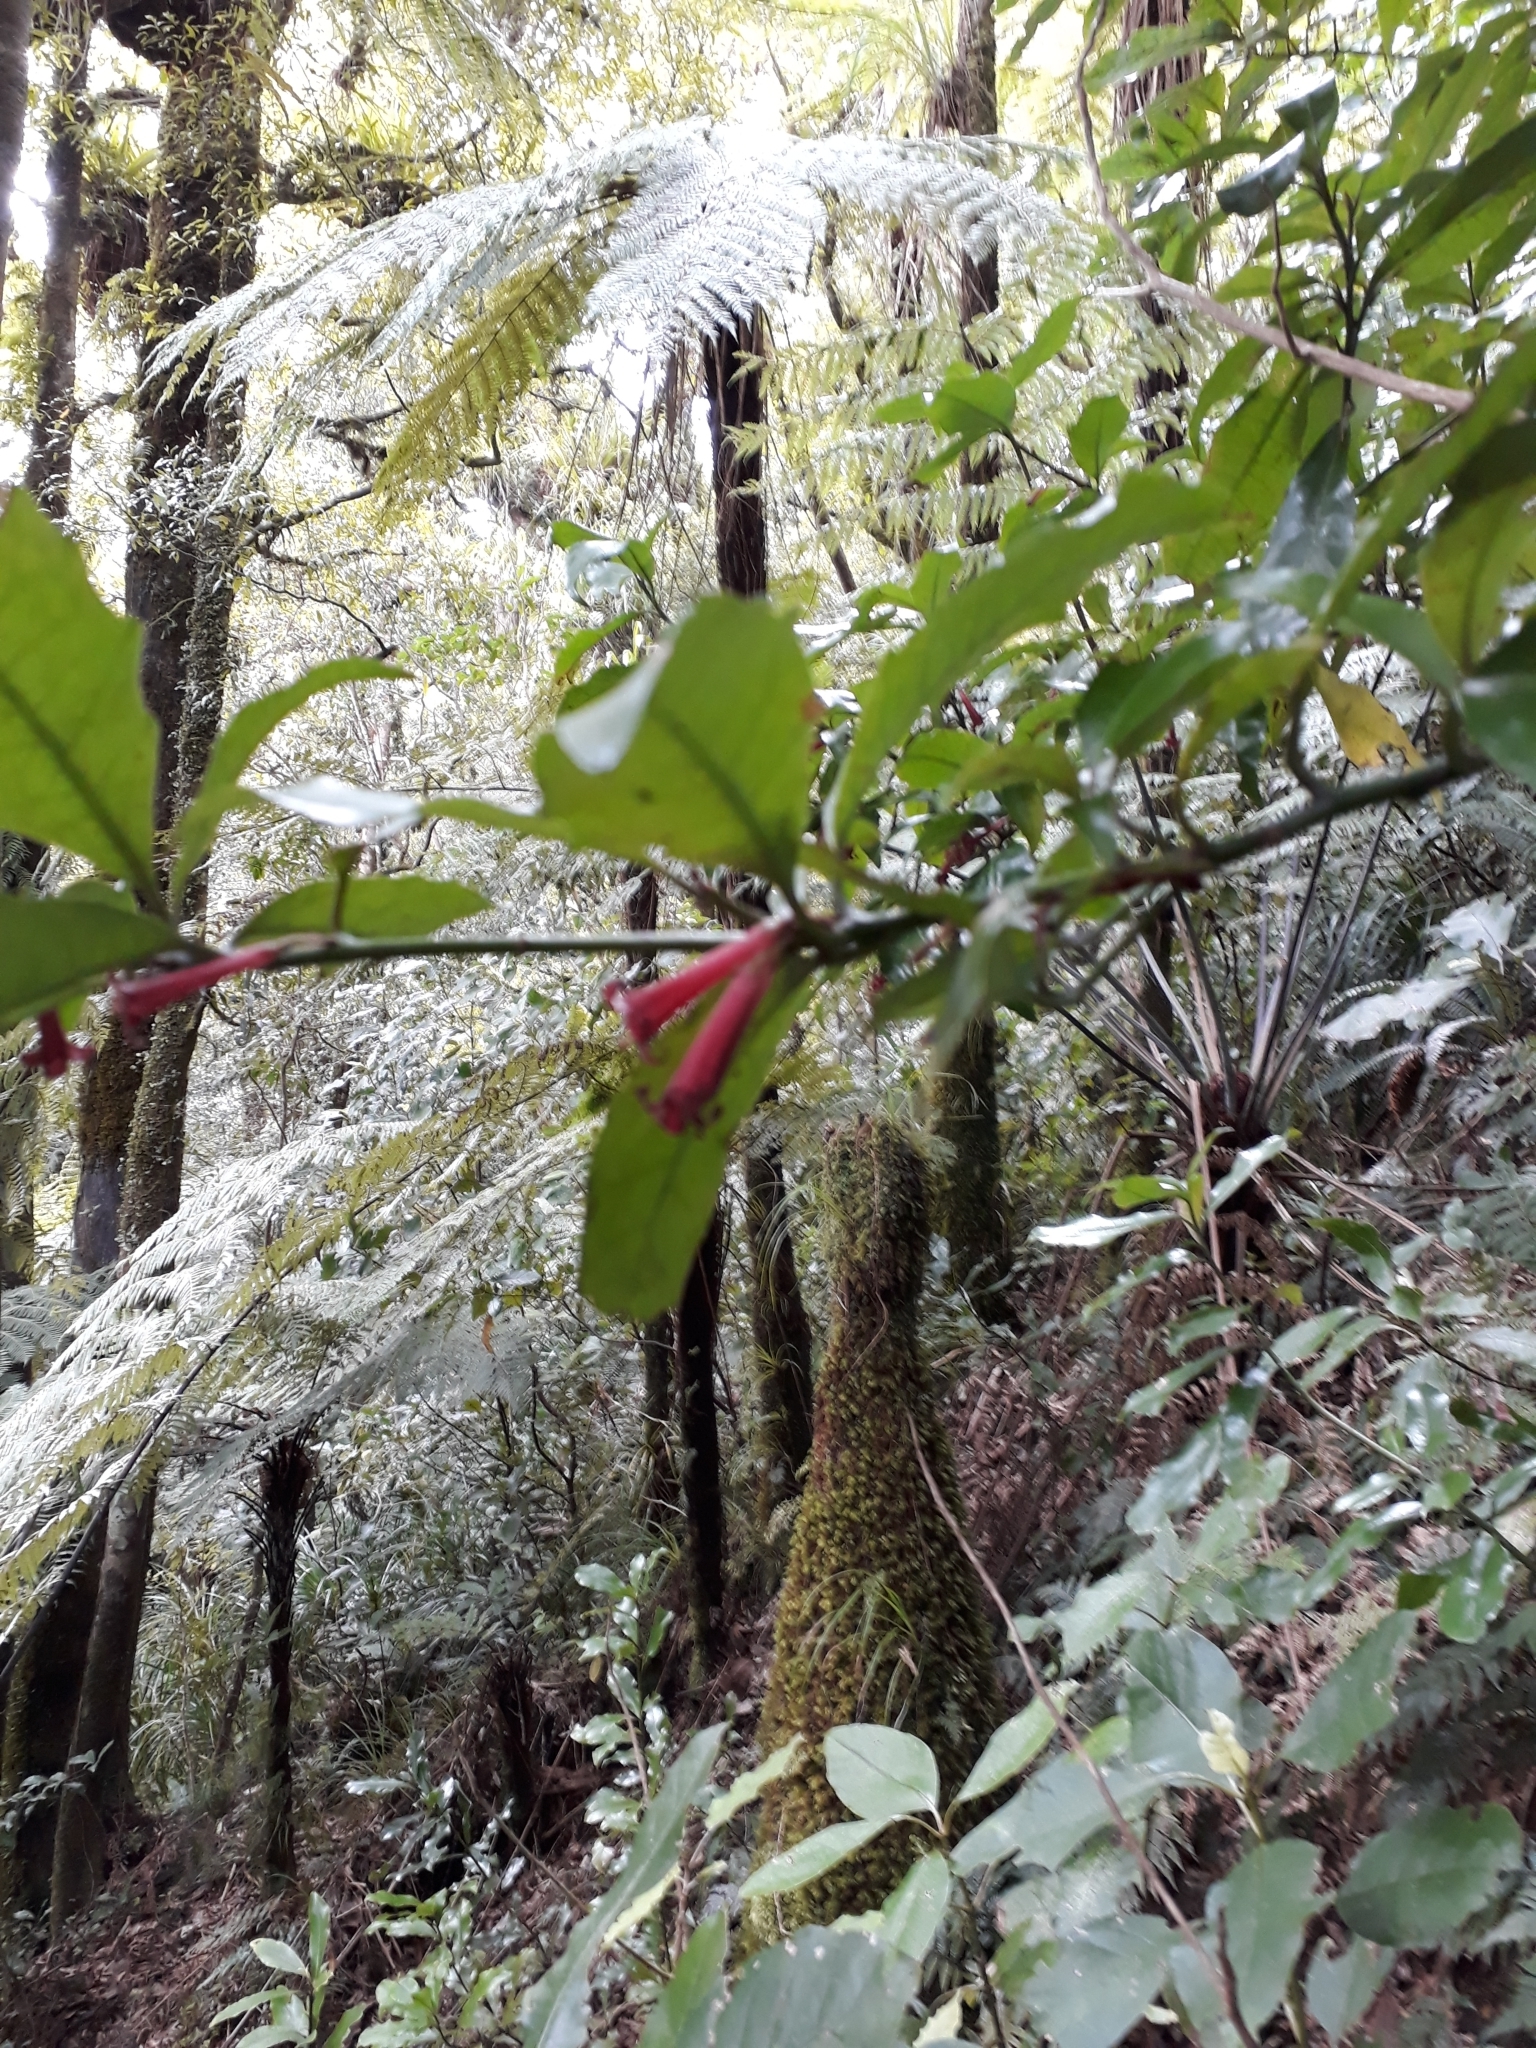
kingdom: Plantae
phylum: Tracheophyta
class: Magnoliopsida
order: Asterales
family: Alseuosmiaceae
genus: Alseuosmia
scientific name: Alseuosmia macrophylla
